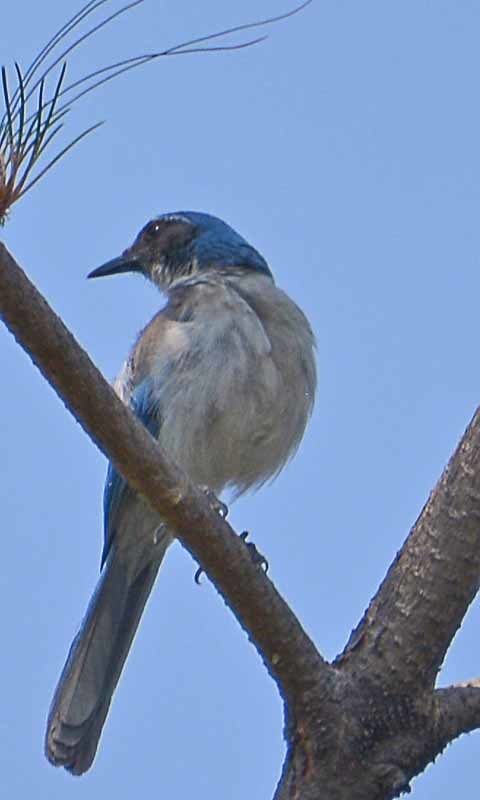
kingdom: Animalia
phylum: Chordata
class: Aves
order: Passeriformes
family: Corvidae
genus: Aphelocoma
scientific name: Aphelocoma woodhouseii
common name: Woodhouse's scrub-jay
